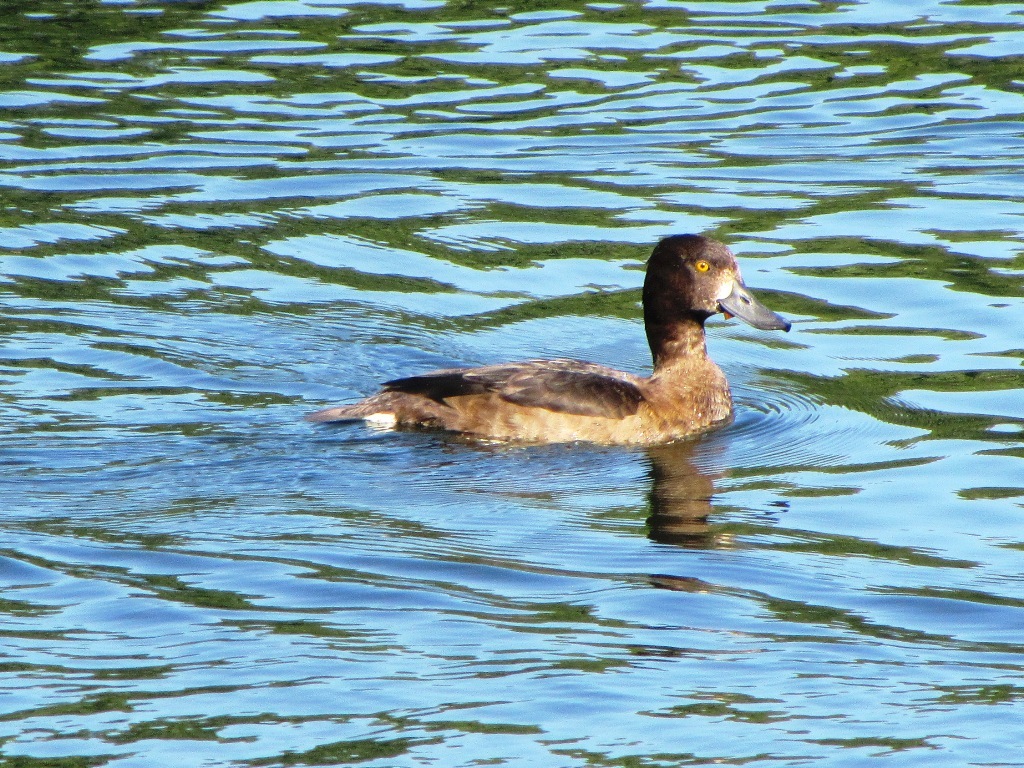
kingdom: Animalia
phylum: Chordata
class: Aves
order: Anseriformes
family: Anatidae
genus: Aythya
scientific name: Aythya fuligula
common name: Tufted duck
